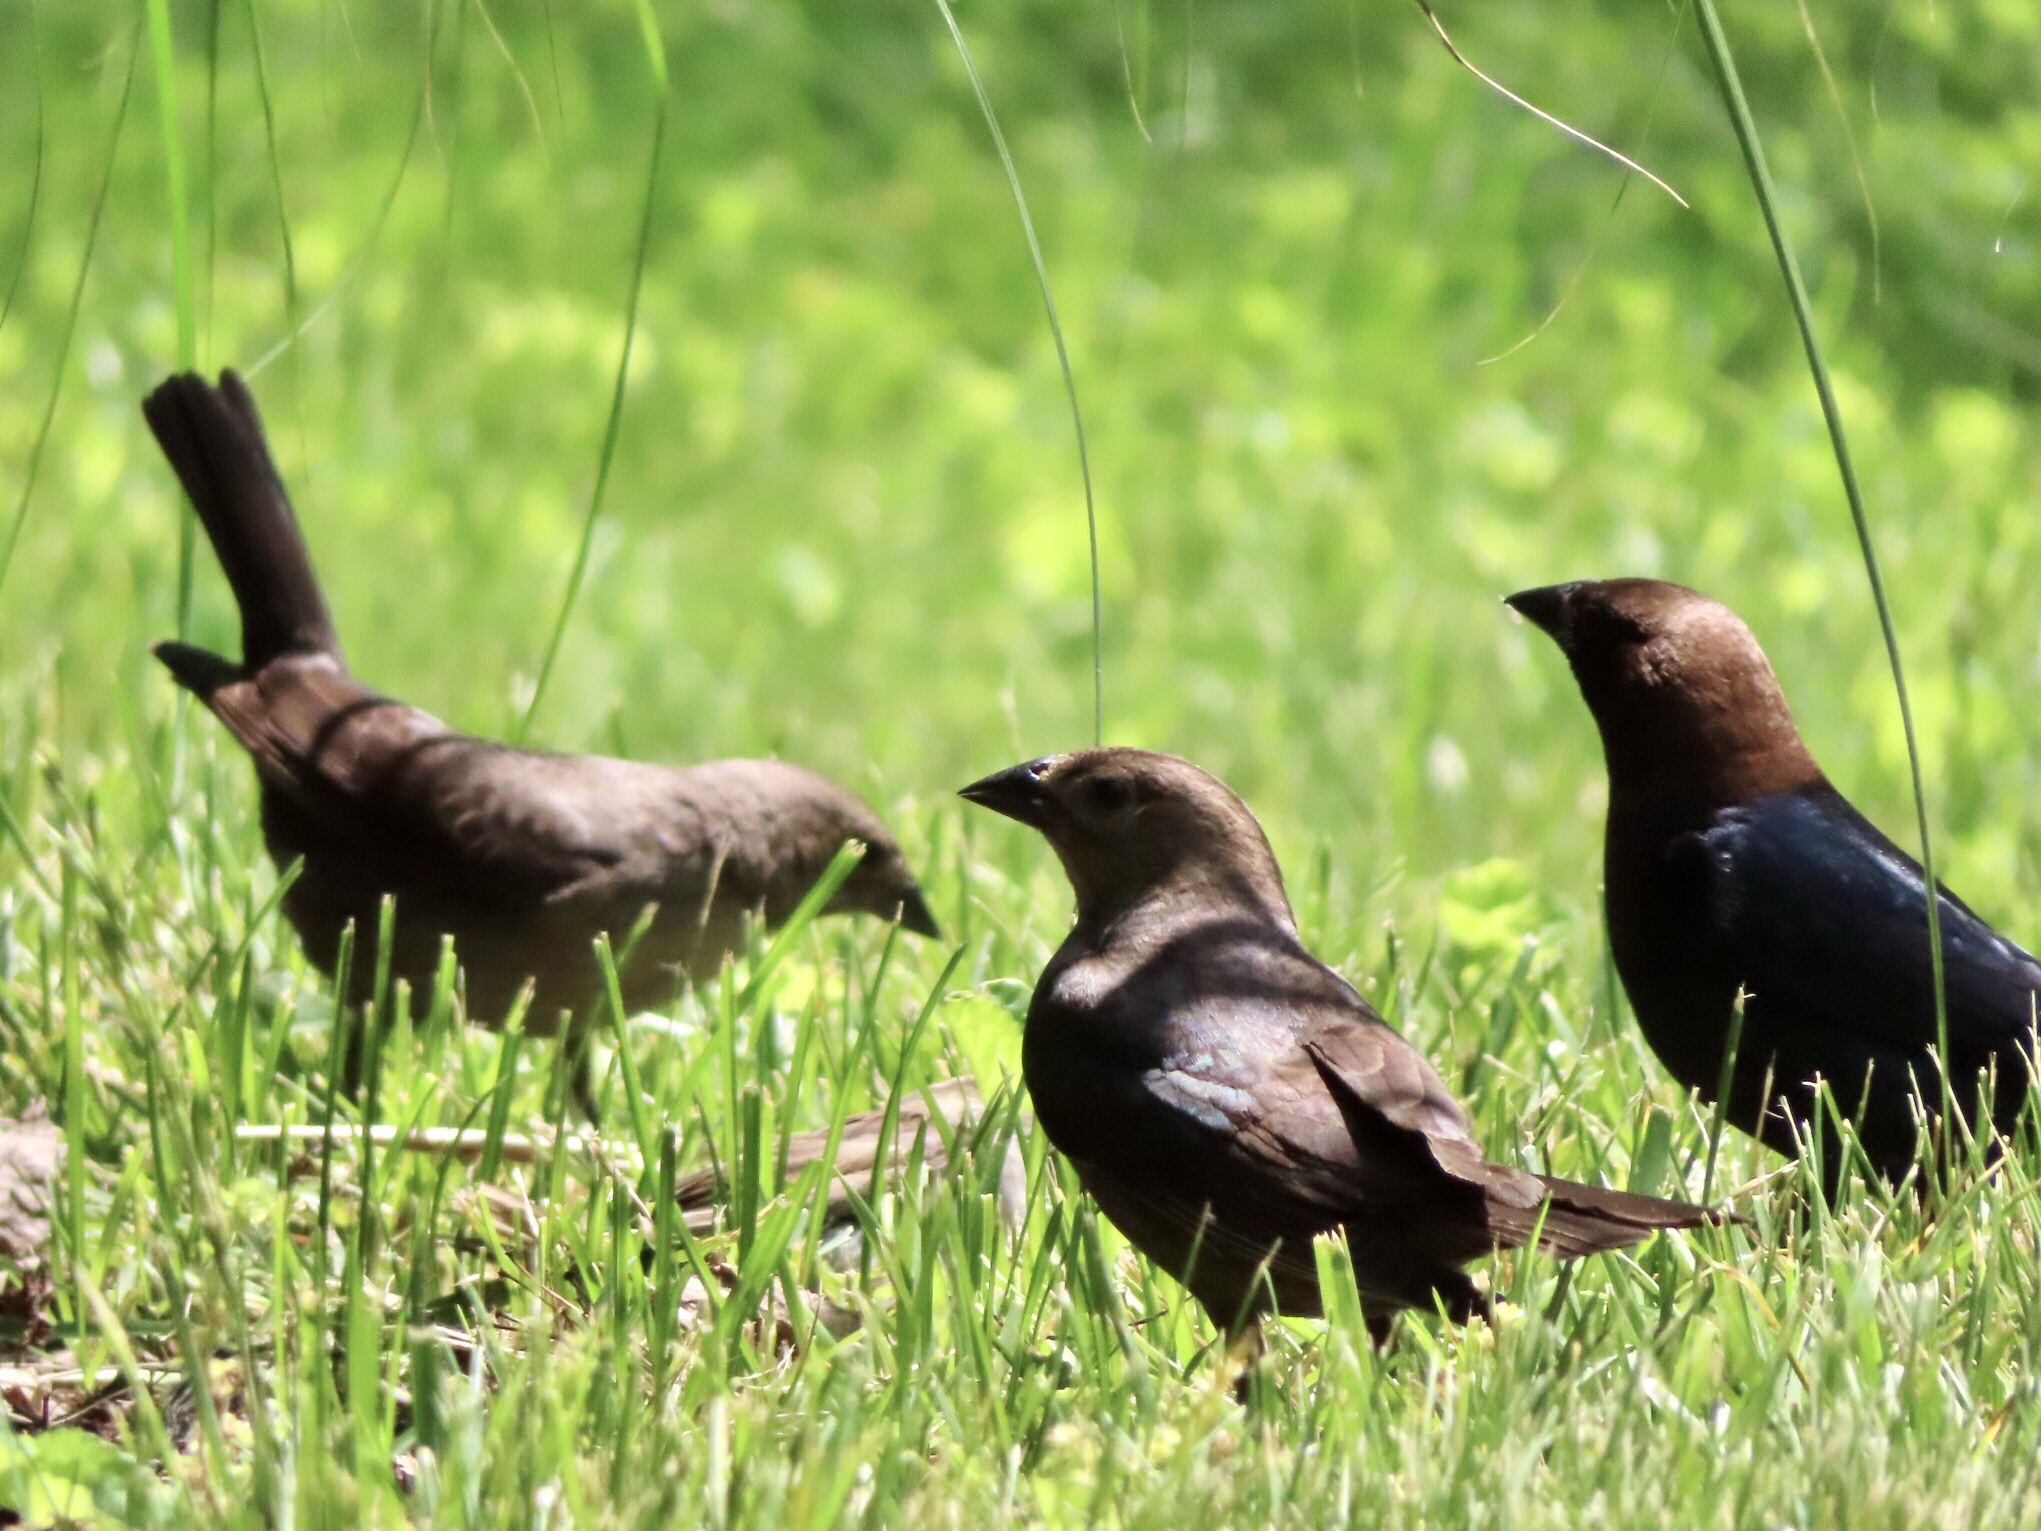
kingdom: Animalia
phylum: Chordata
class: Aves
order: Passeriformes
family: Icteridae
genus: Molothrus
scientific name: Molothrus ater
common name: Brown-headed cowbird
